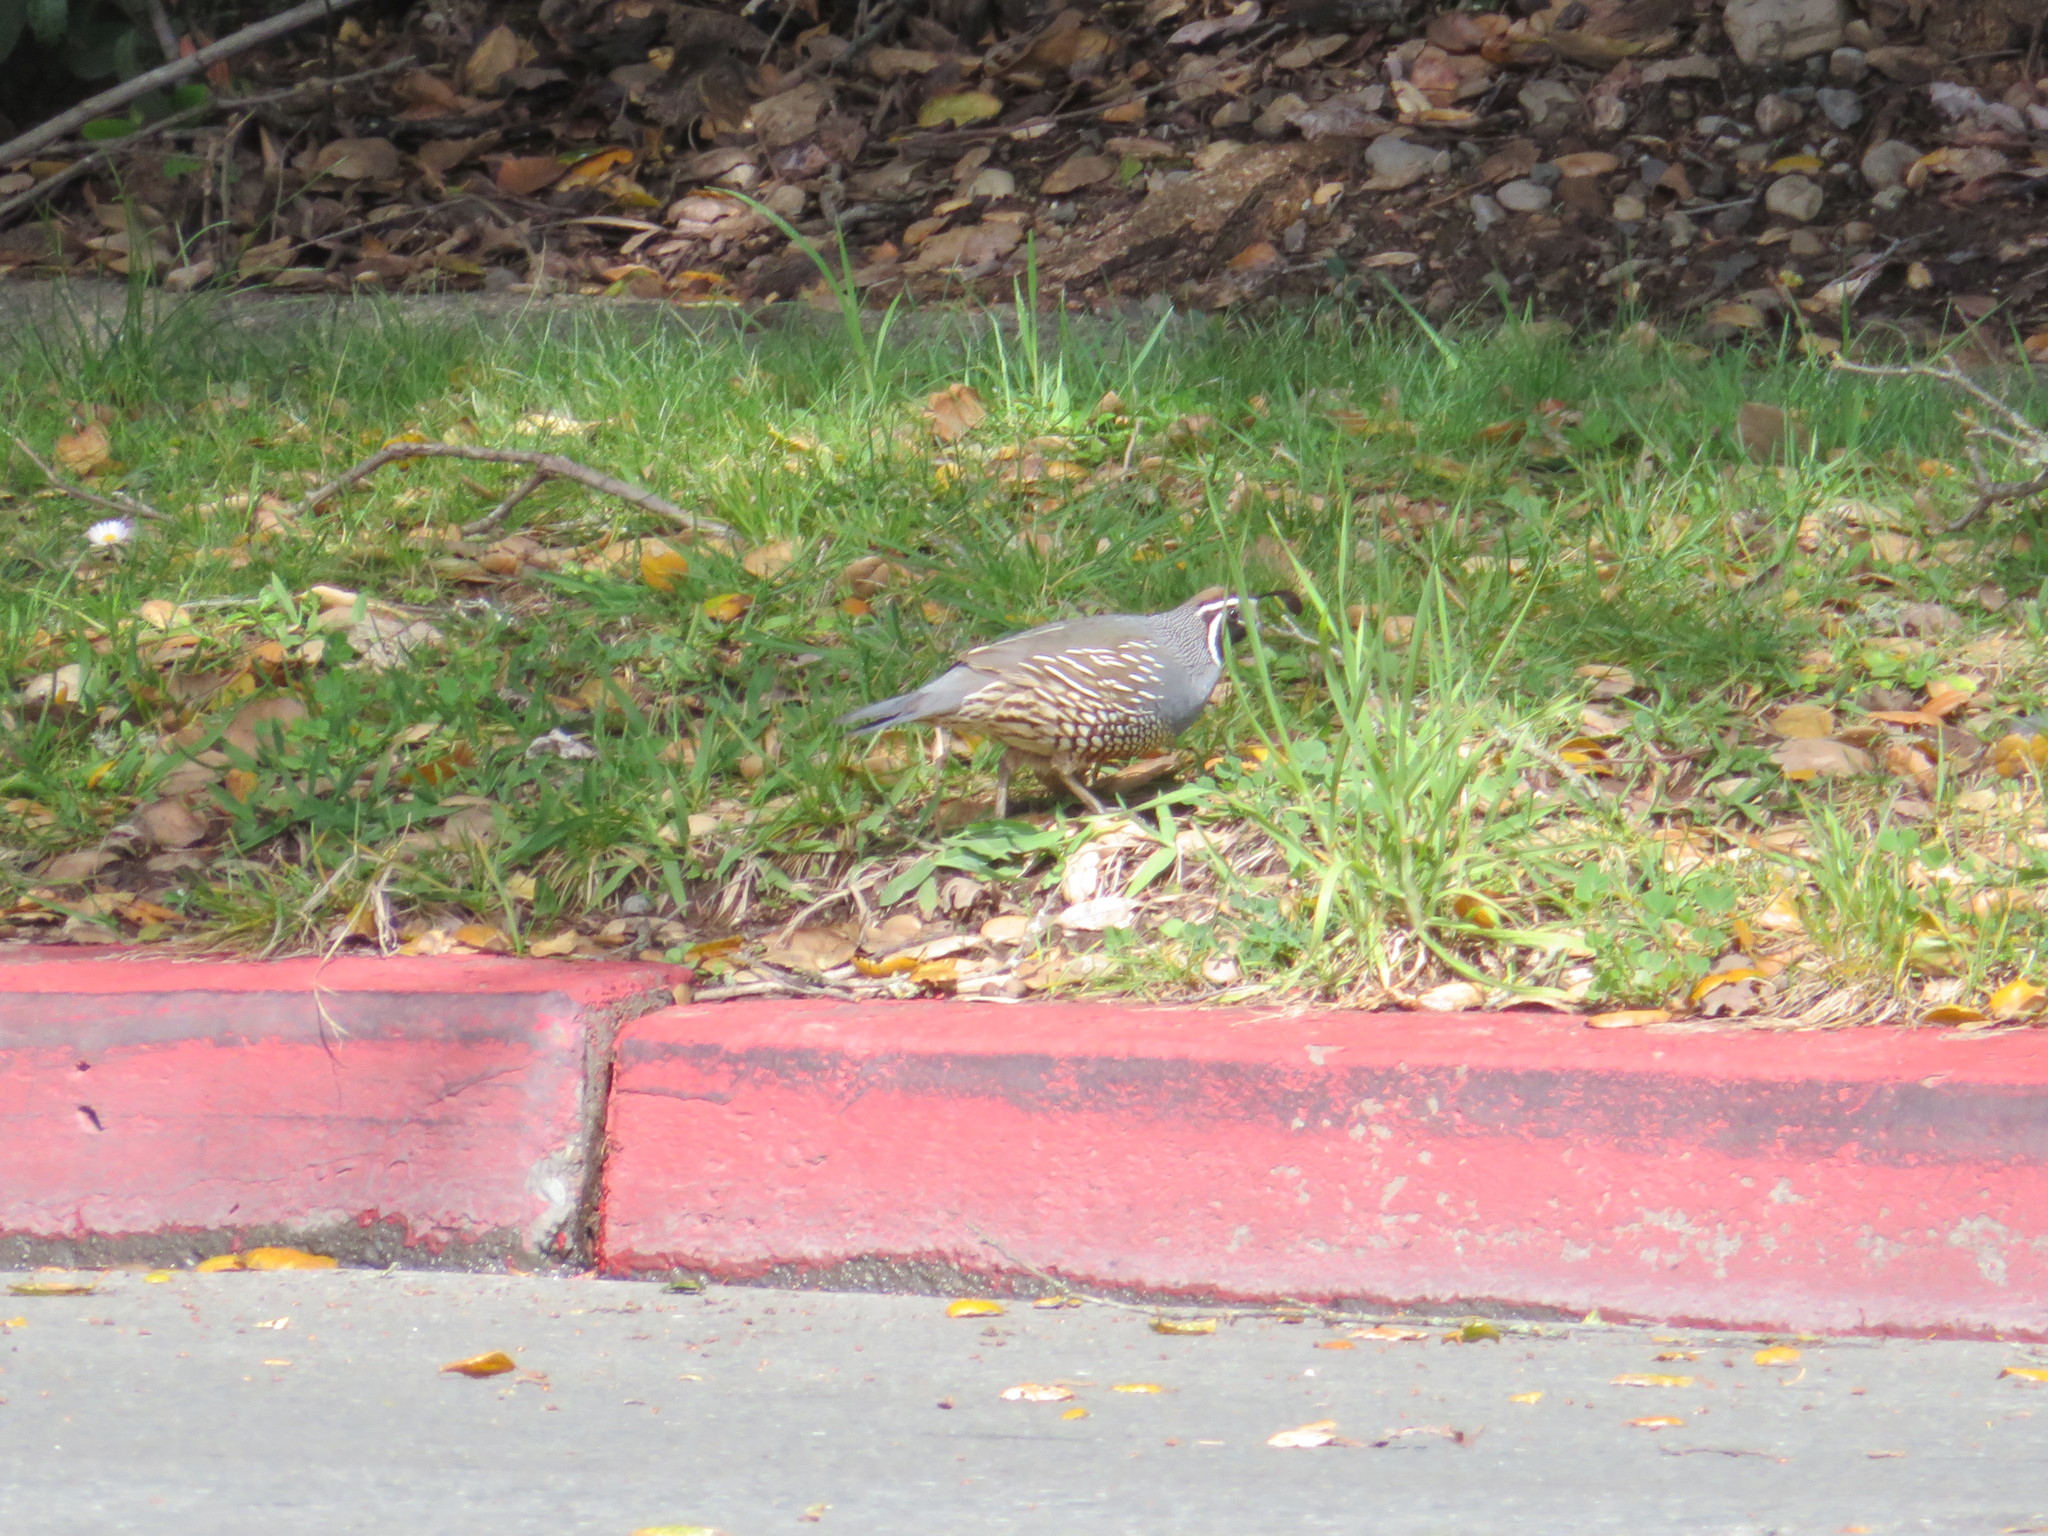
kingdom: Animalia
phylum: Chordata
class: Aves
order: Galliformes
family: Odontophoridae
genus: Callipepla
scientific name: Callipepla californica
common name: California quail
